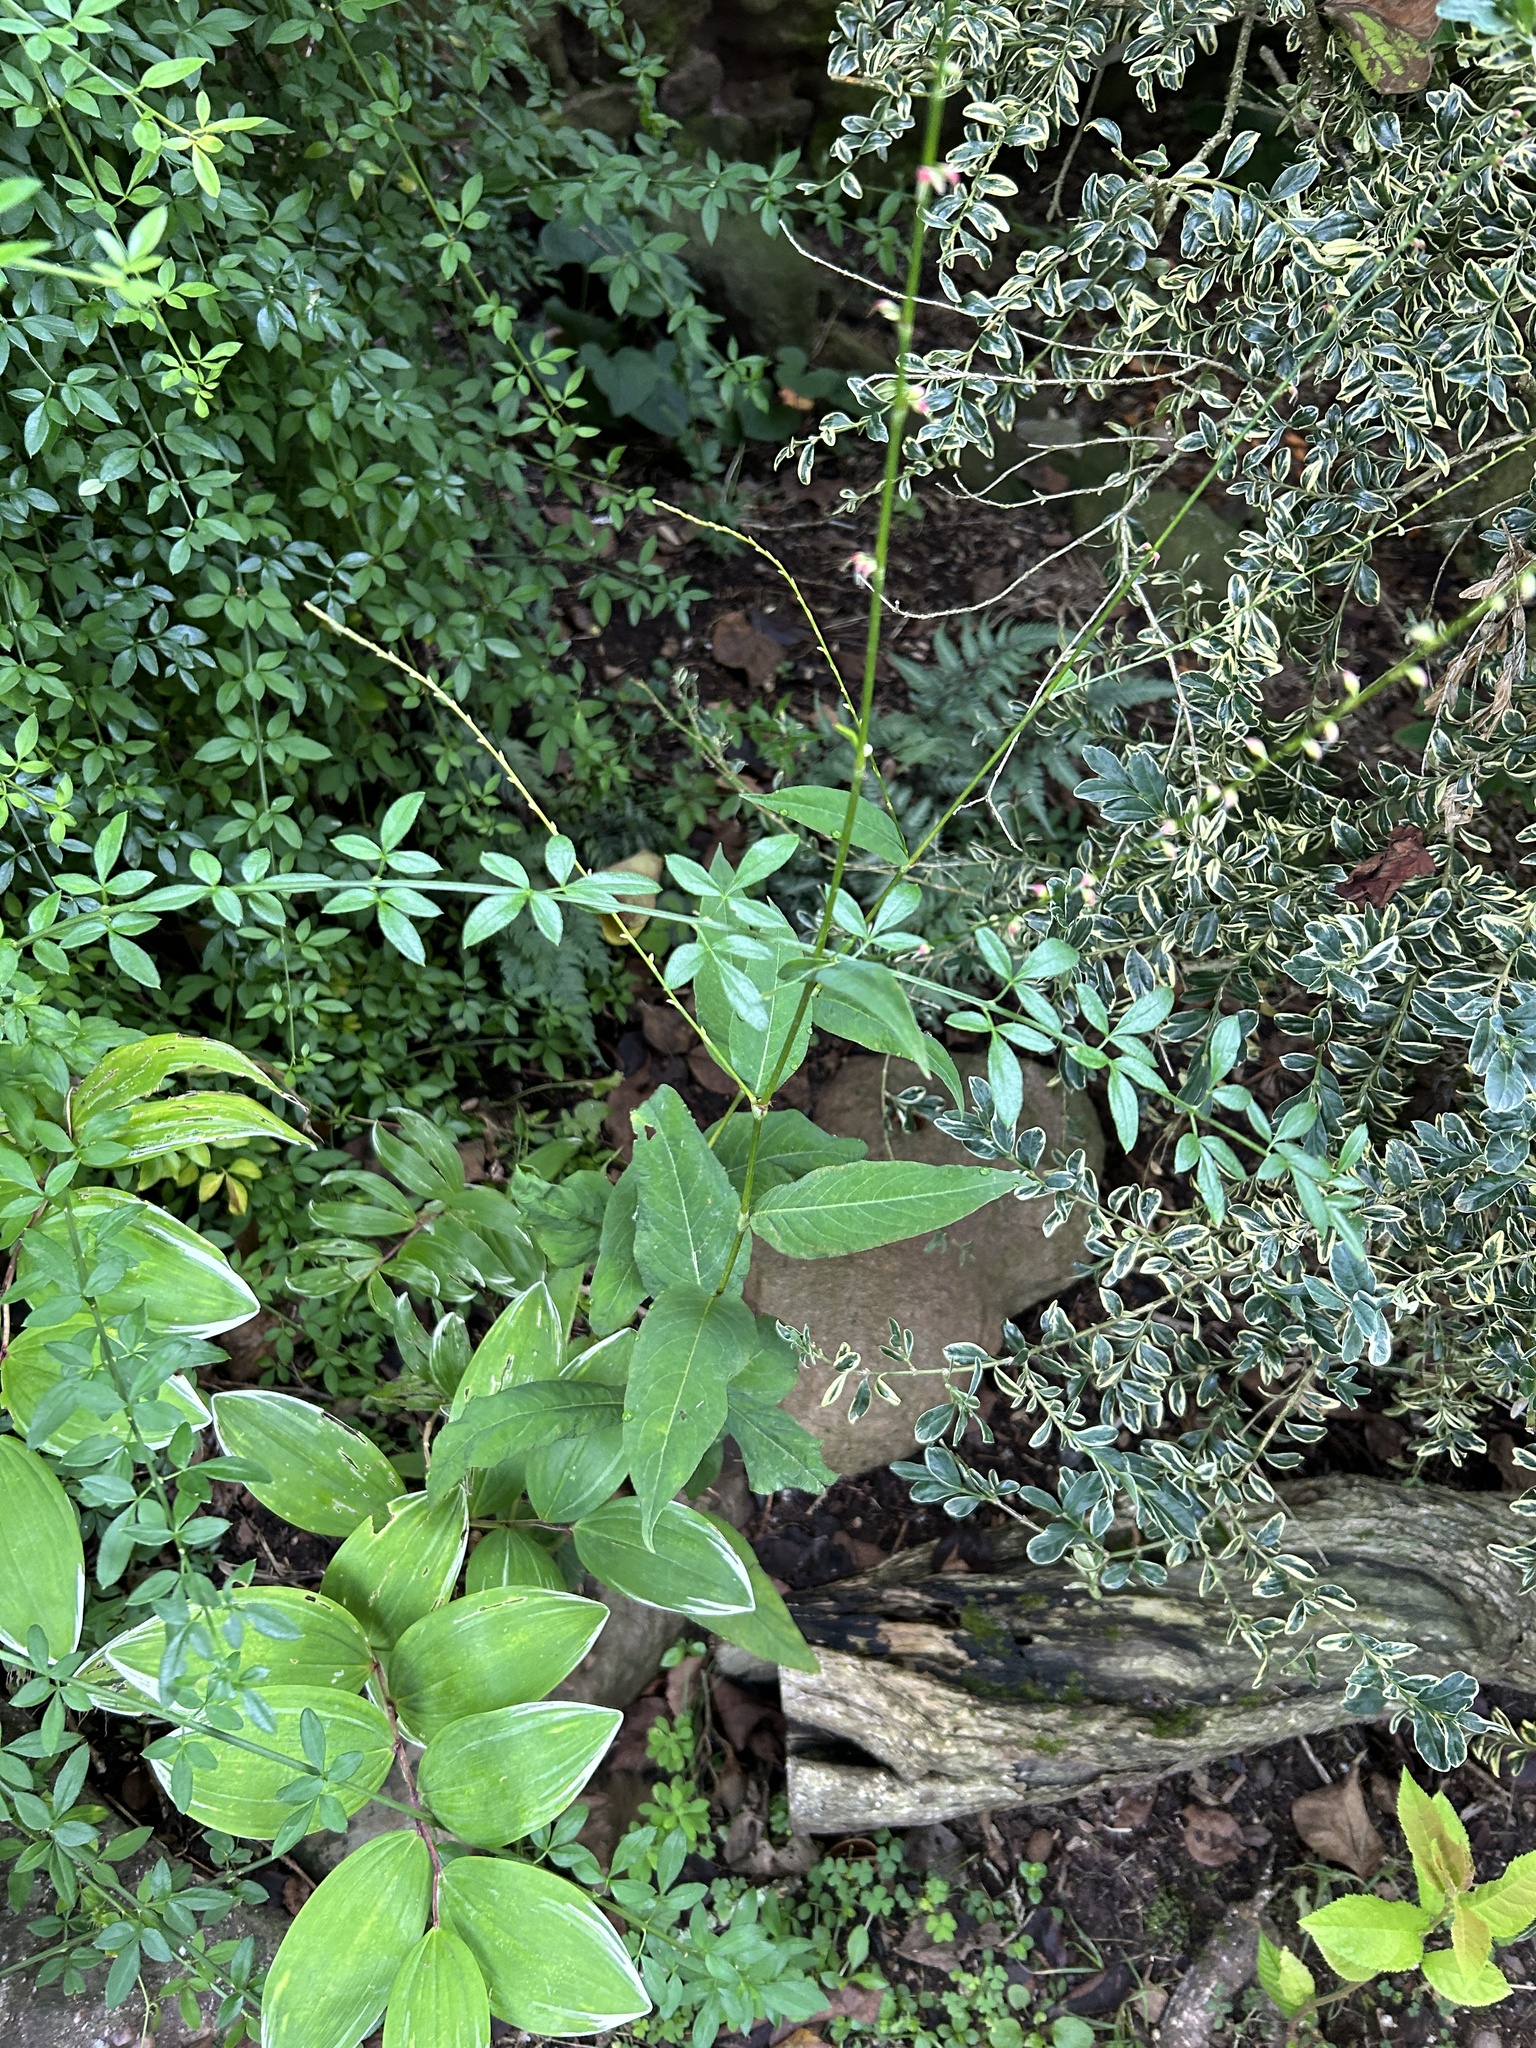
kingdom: Plantae
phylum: Tracheophyta
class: Magnoliopsida
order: Caryophyllales
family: Polygonaceae
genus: Persicaria
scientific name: Persicaria virginiana
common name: Jumpseed
